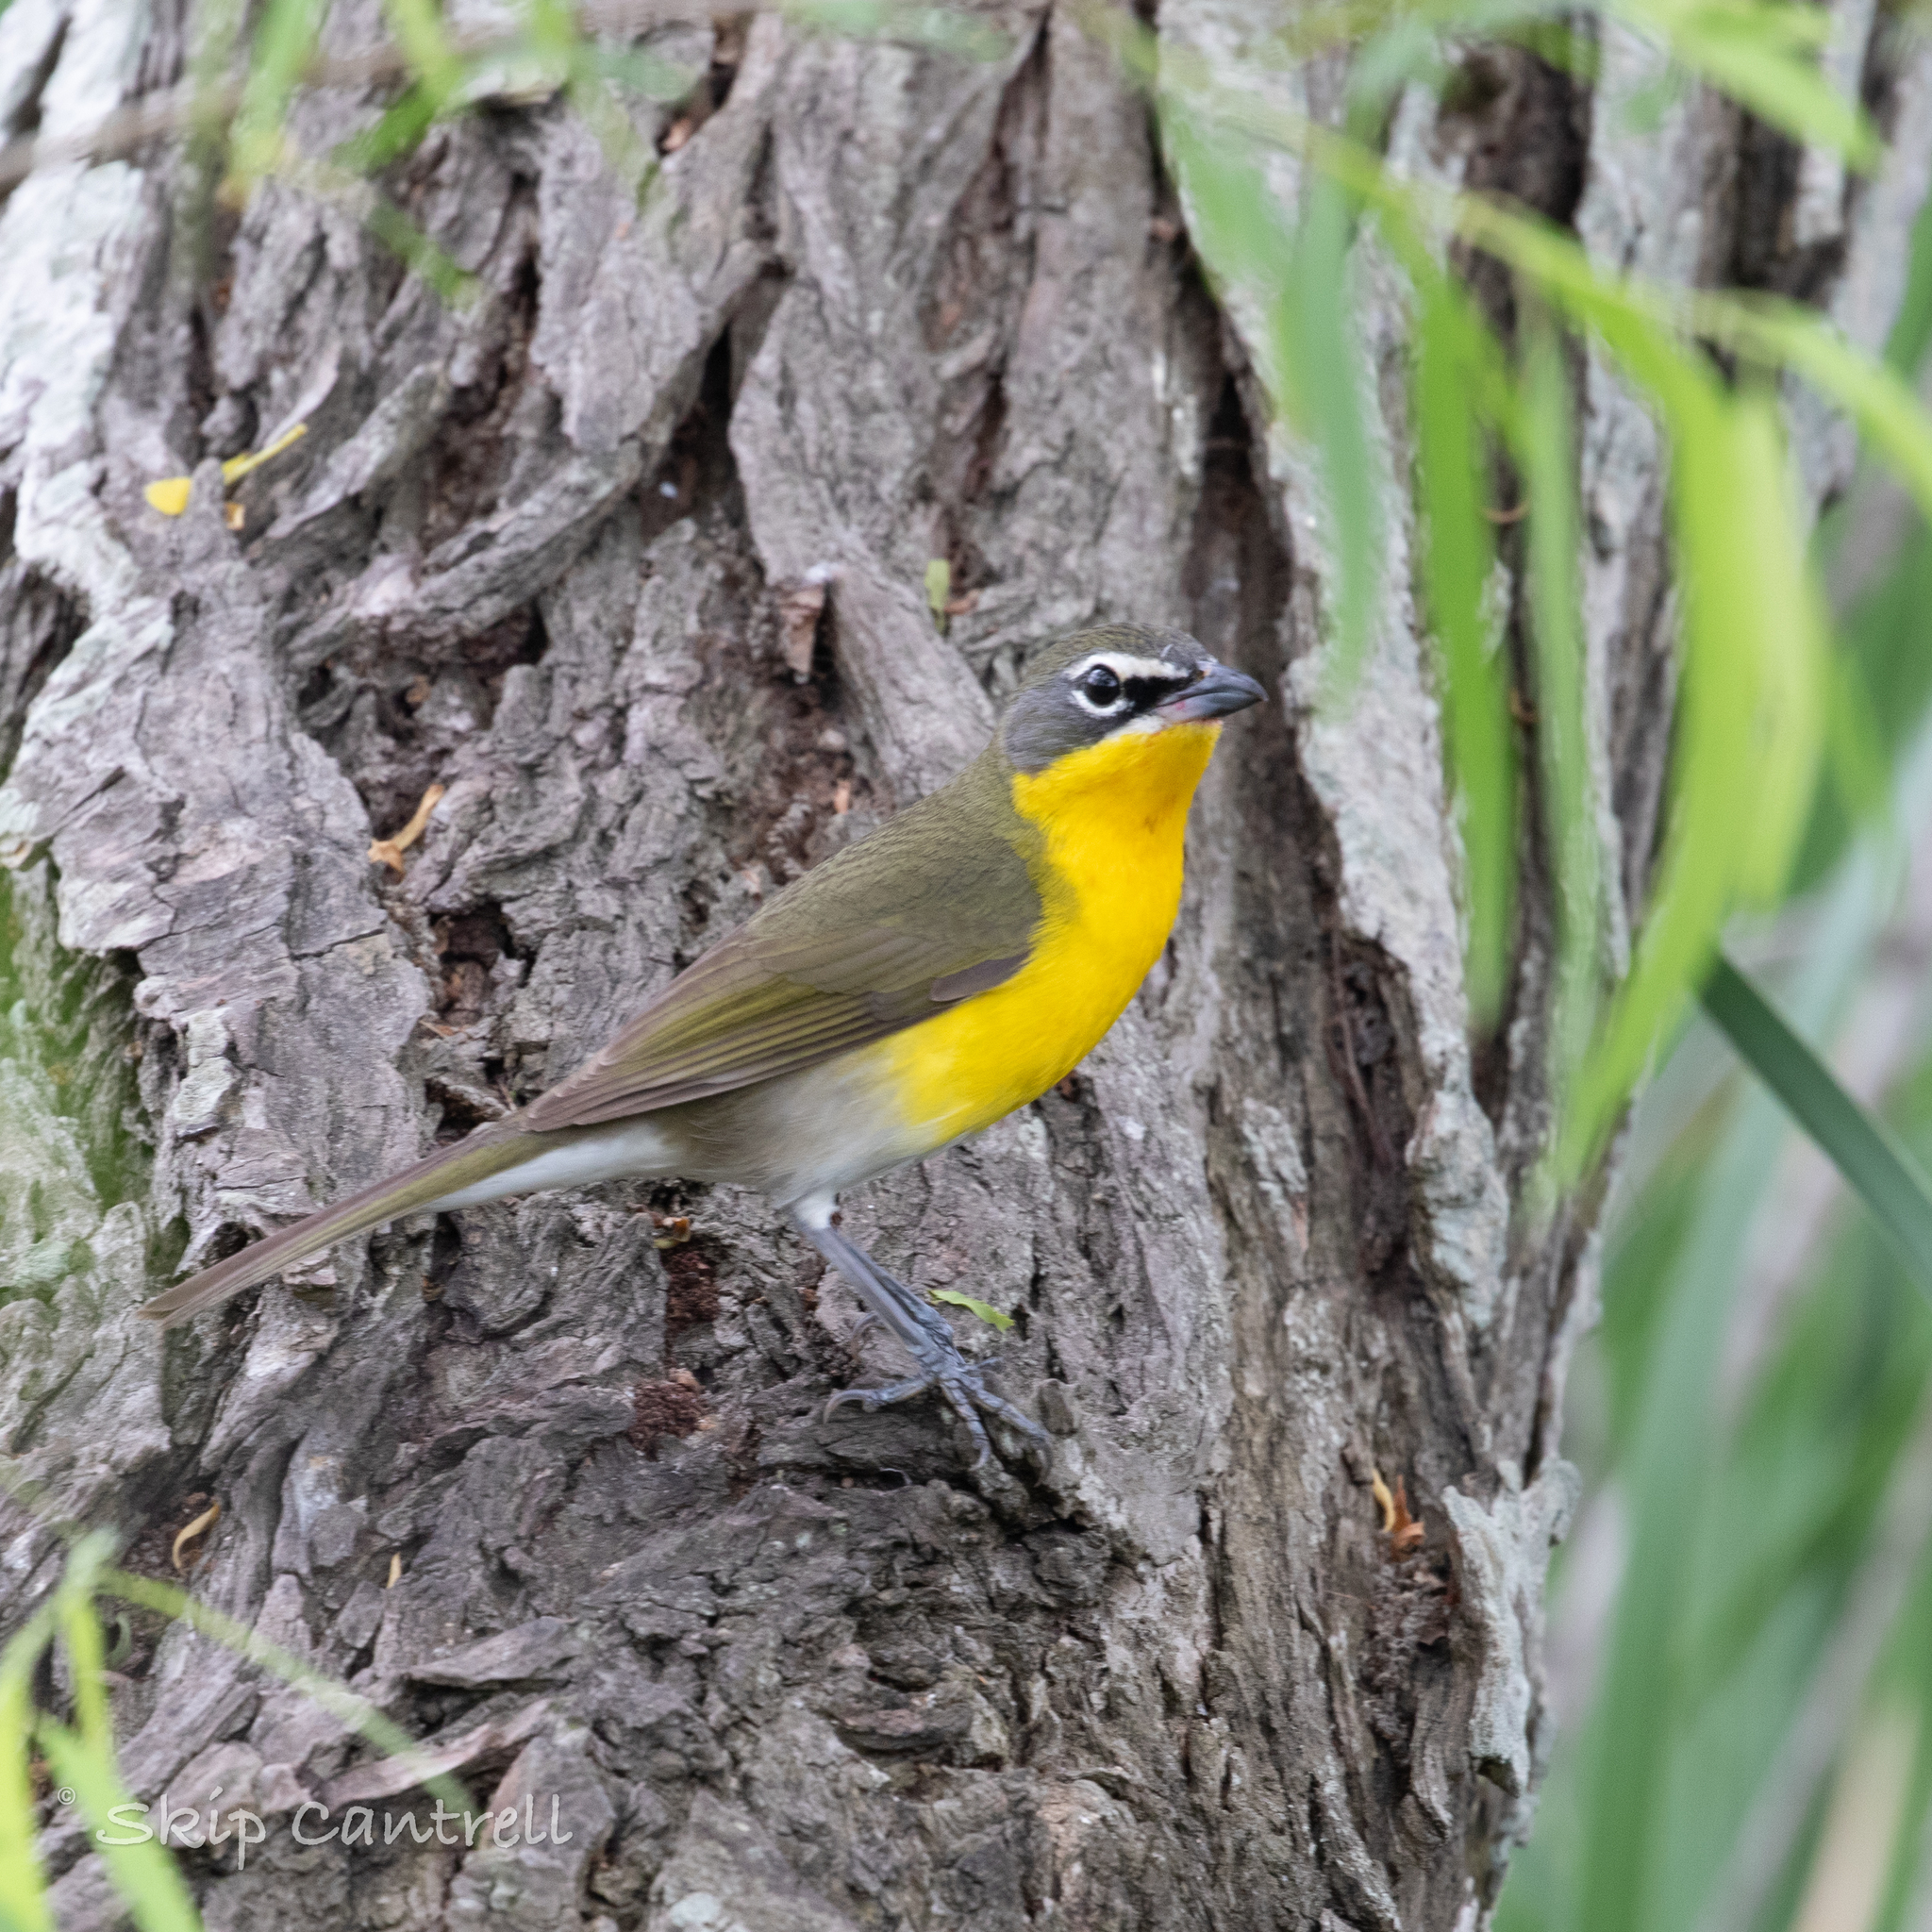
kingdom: Animalia
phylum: Chordata
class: Aves
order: Passeriformes
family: Parulidae
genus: Icteria
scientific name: Icteria virens
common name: Yellow-breasted chat
